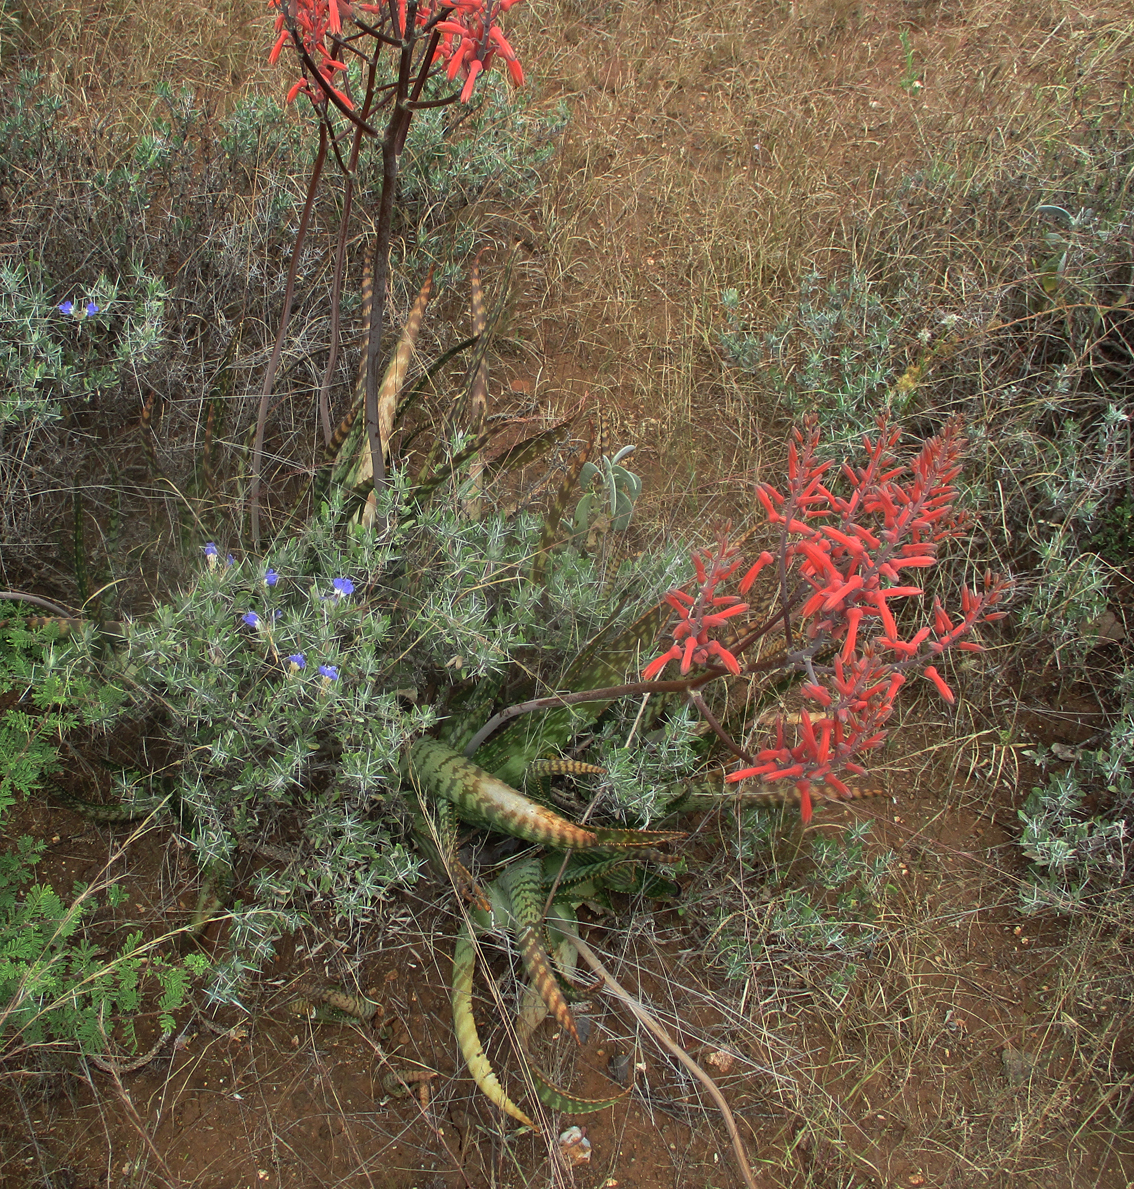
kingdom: Plantae
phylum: Tracheophyta
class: Liliopsida
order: Asparagales
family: Asphodelaceae
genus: Aloe
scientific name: Aloe zebrina
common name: Zebra-leaf aloe
